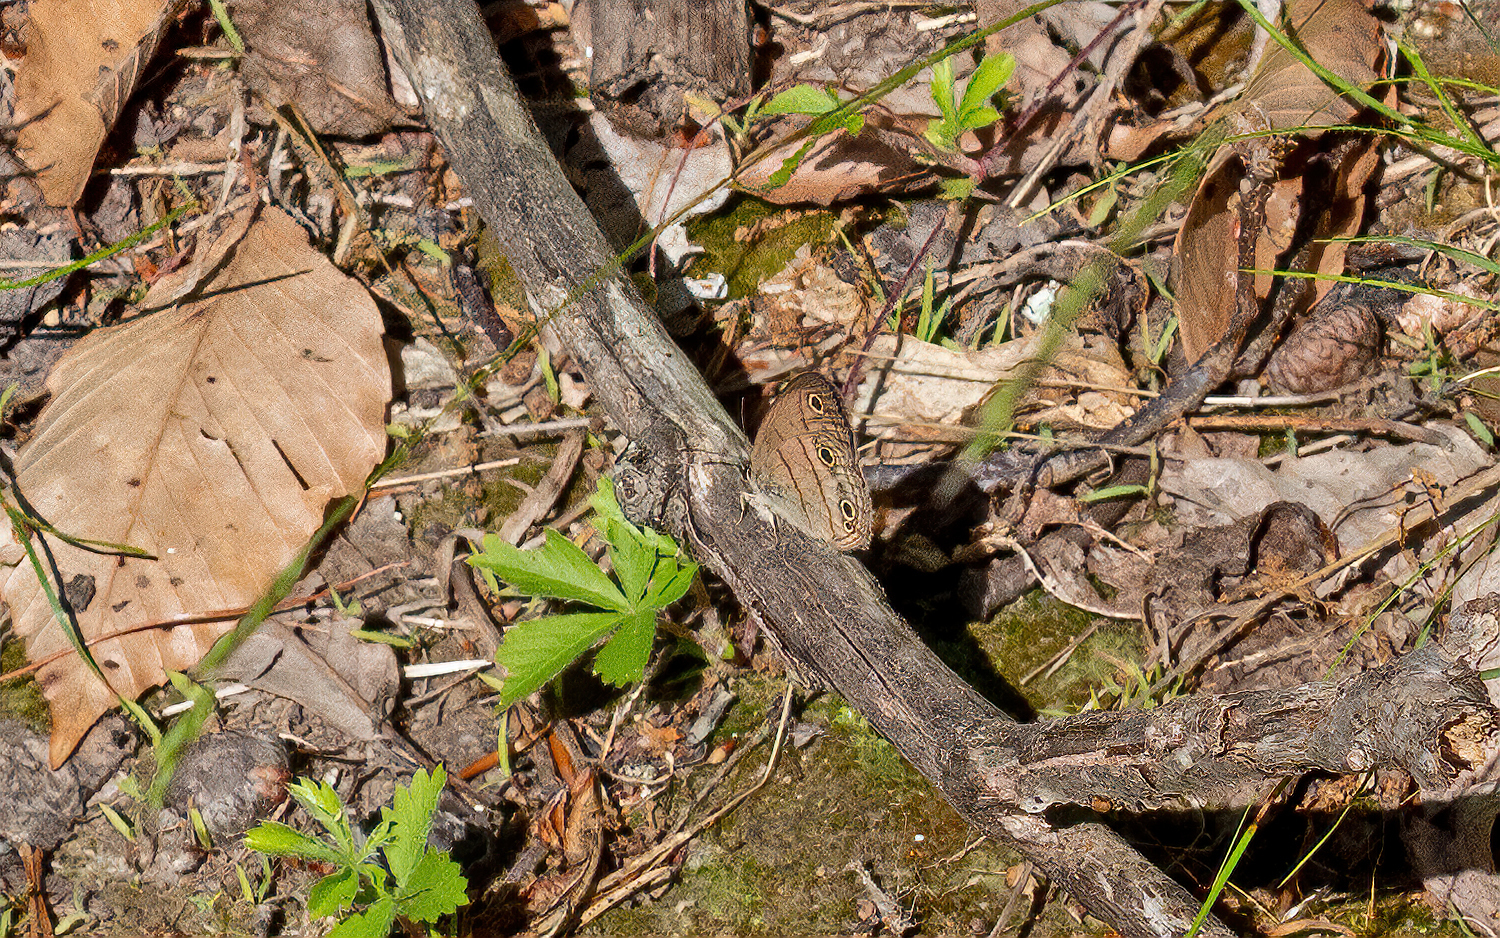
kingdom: Animalia
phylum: Arthropoda
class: Insecta
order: Lepidoptera
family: Nymphalidae
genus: Euptychia
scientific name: Euptychia cymela
